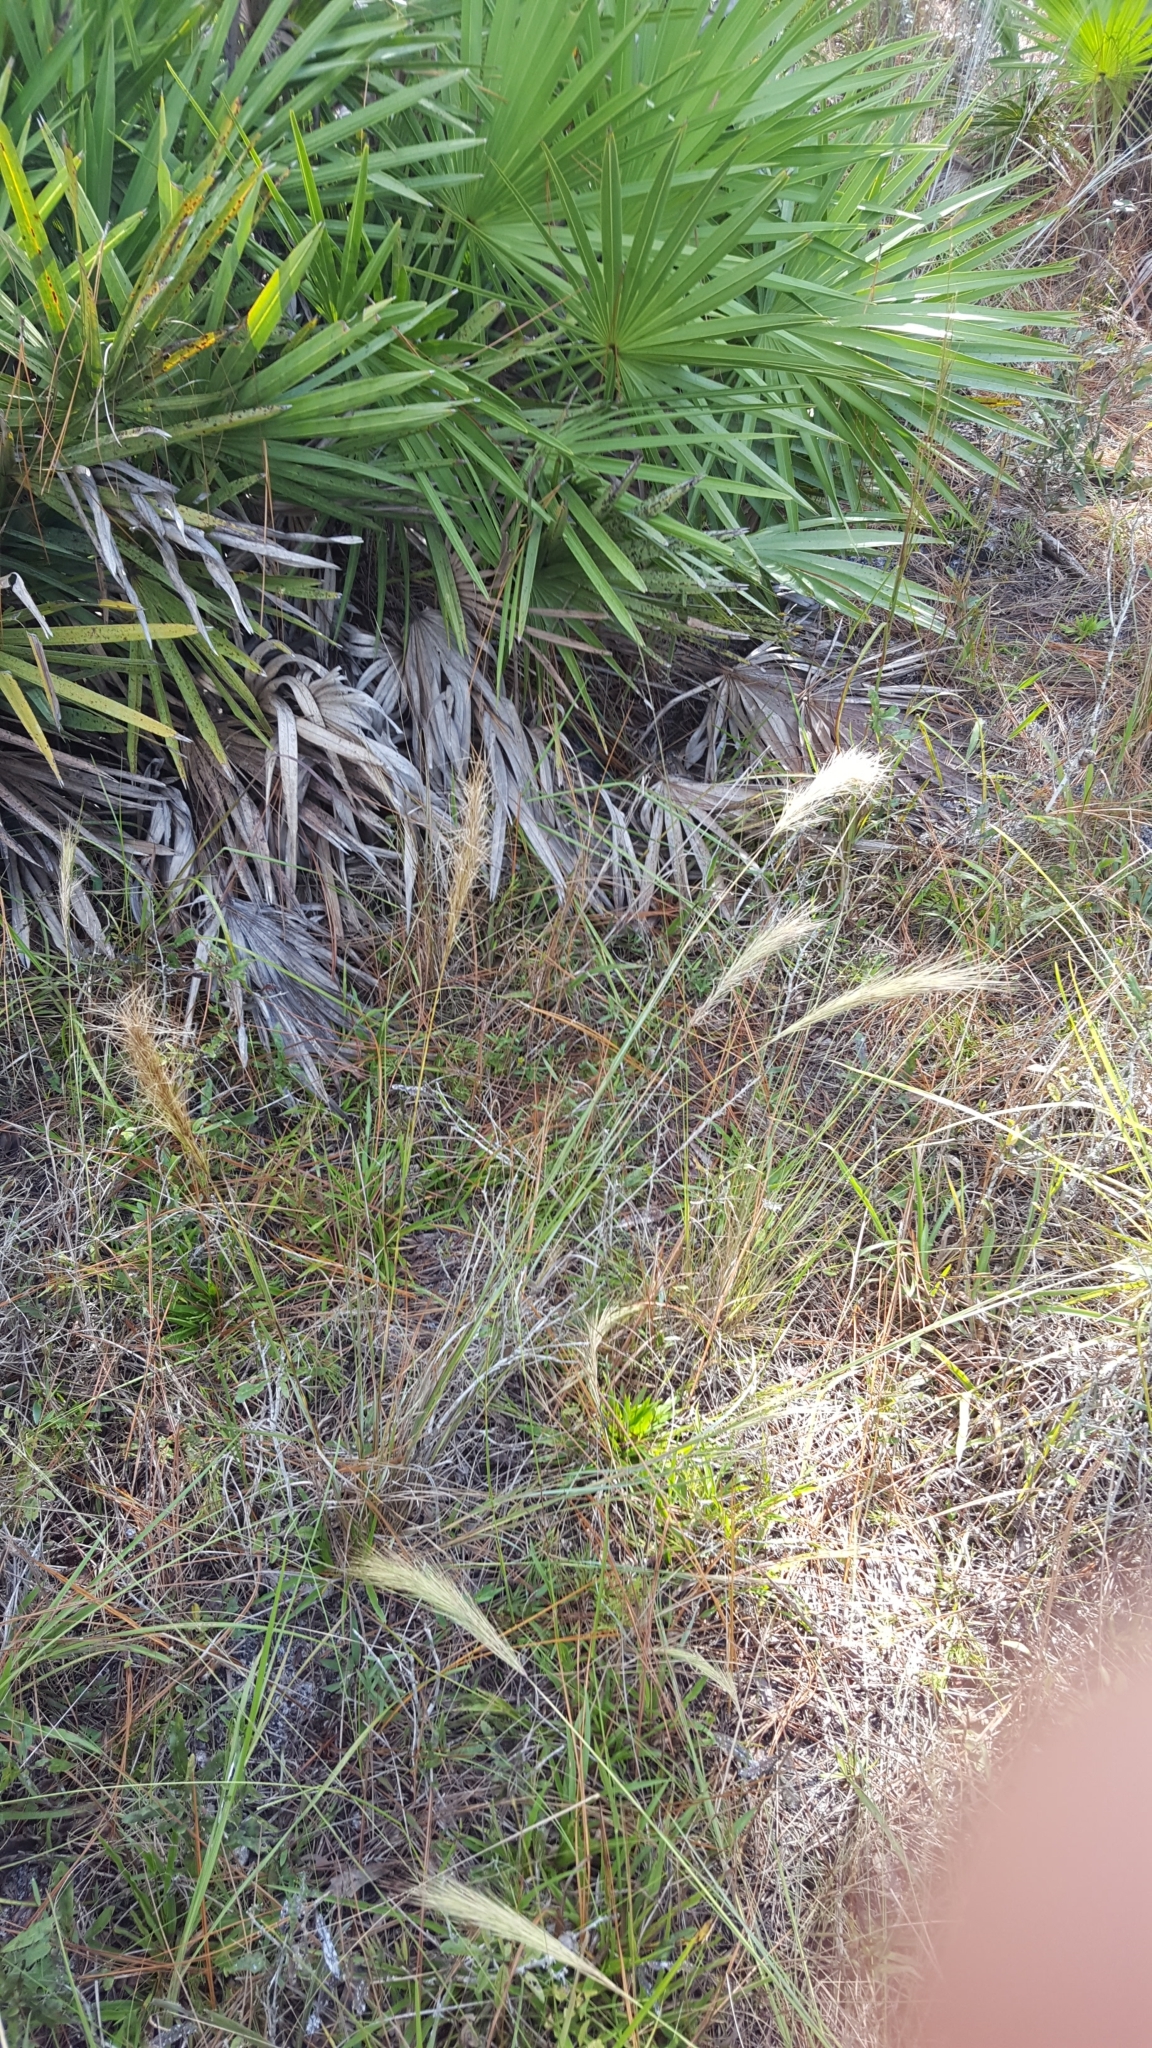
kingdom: Plantae
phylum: Tracheophyta
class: Liliopsida
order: Poales
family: Poaceae
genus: Aristida
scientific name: Aristida spiciformis
